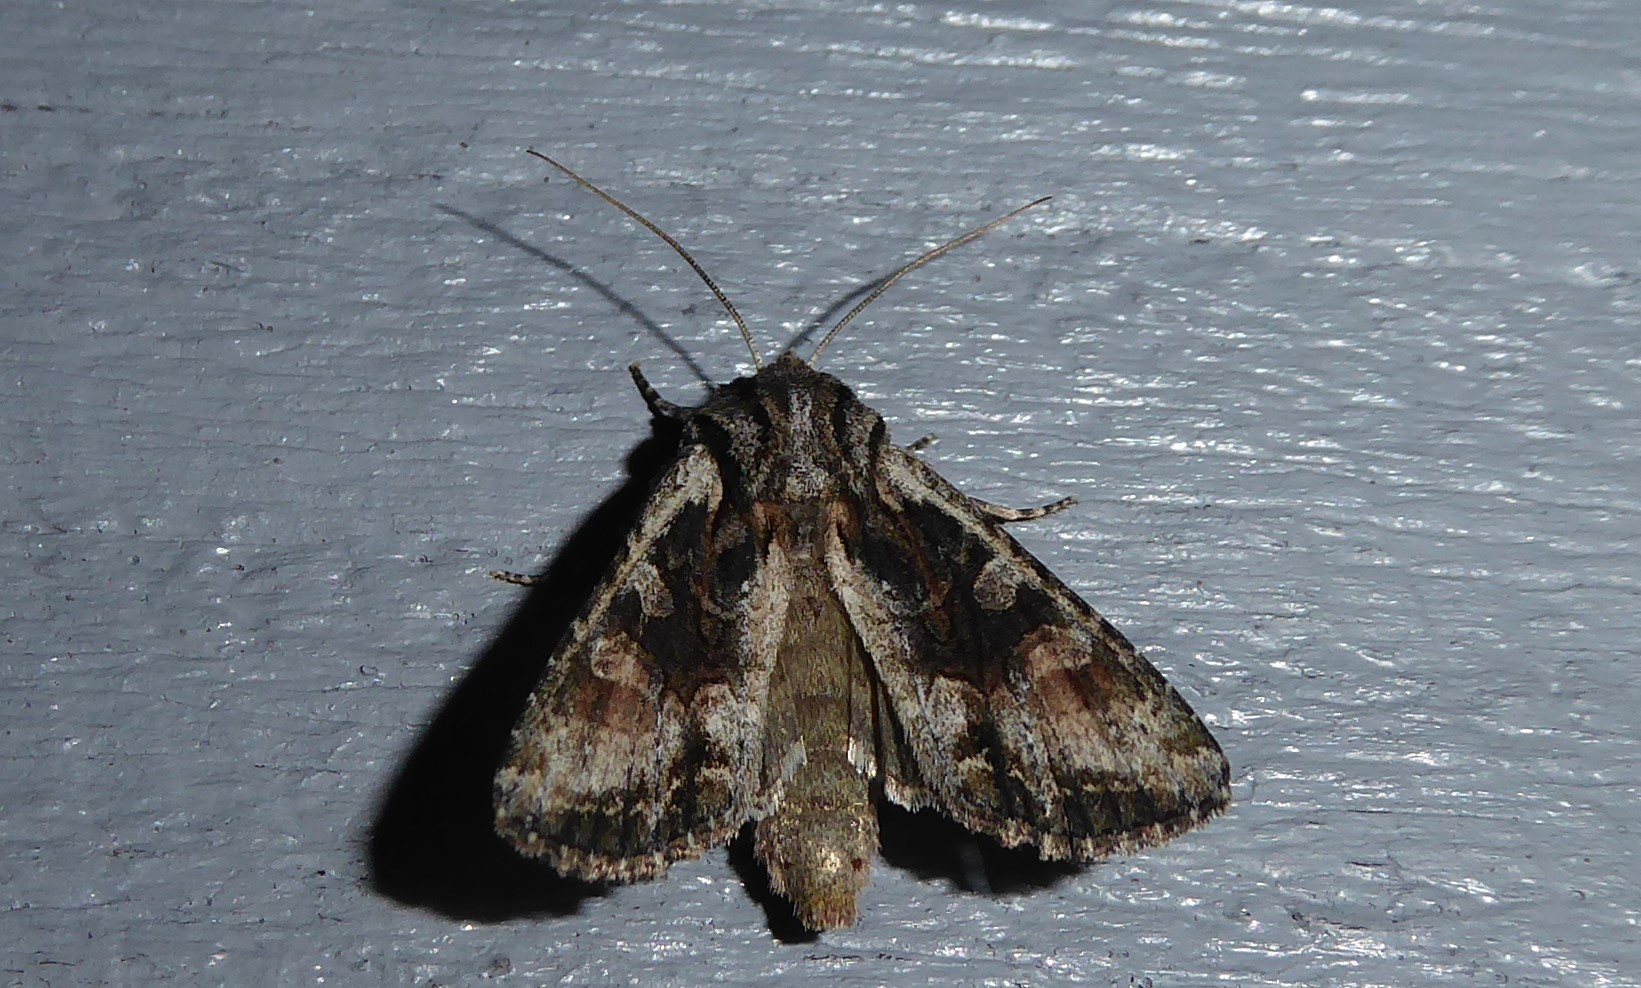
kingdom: Animalia
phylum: Arthropoda
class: Insecta
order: Lepidoptera
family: Noctuidae
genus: Ichneutica
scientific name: Ichneutica mutans
